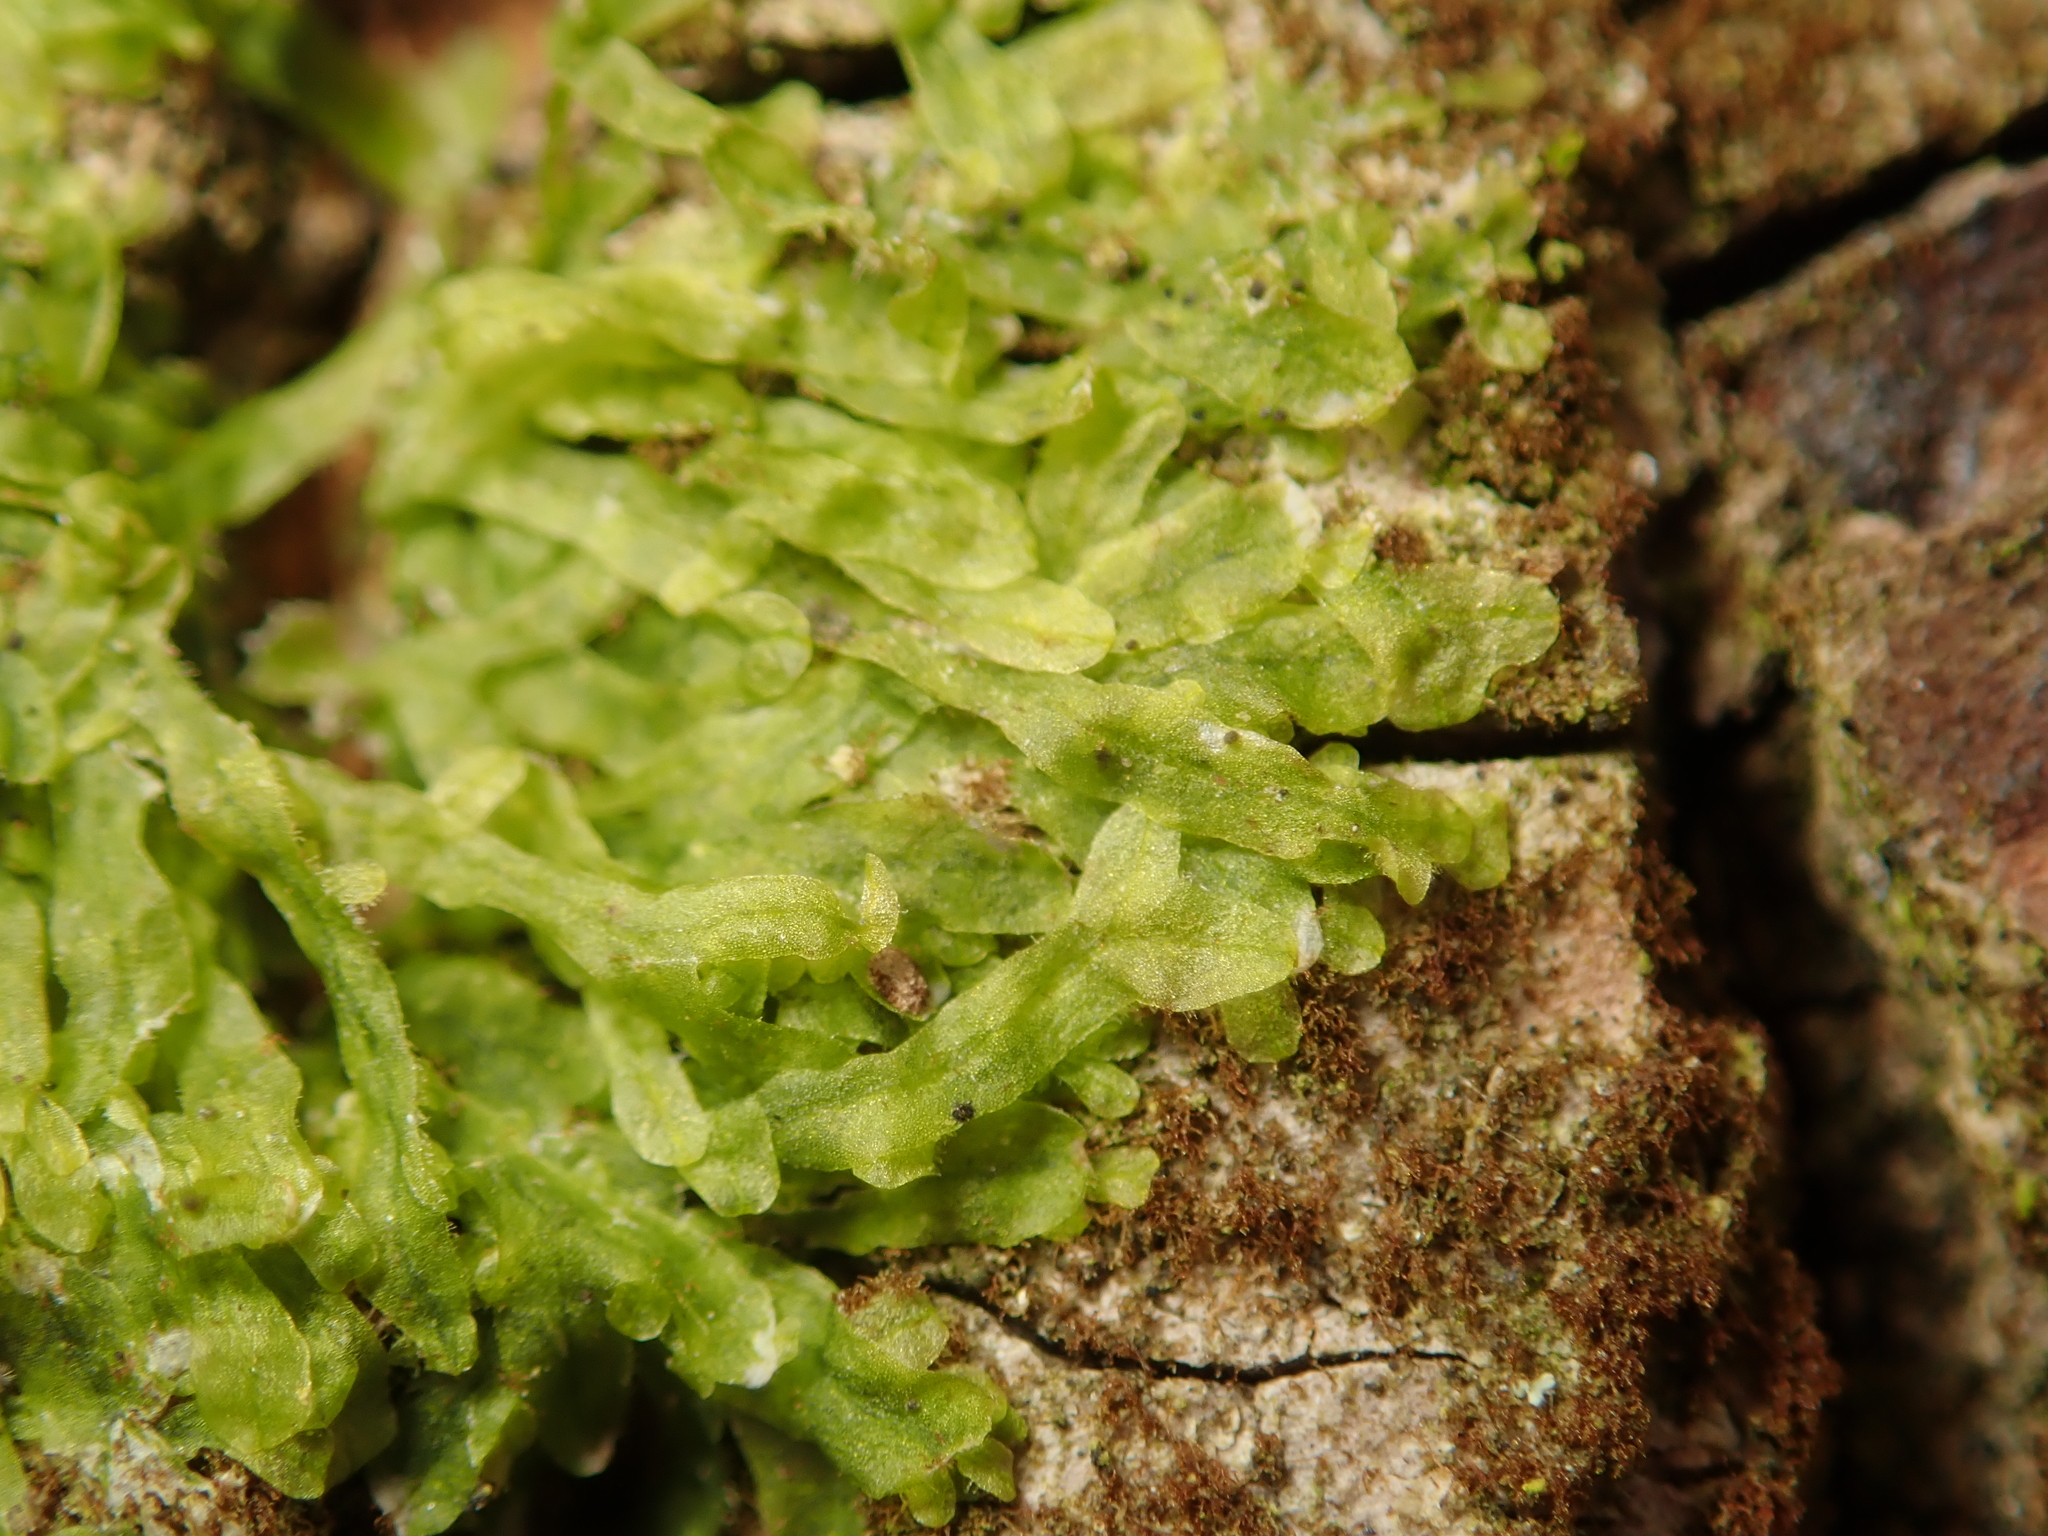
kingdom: Plantae
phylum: Marchantiophyta
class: Jungermanniopsida
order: Metzgeriales
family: Metzgeriaceae
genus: Metzgeria
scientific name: Metzgeria furcata
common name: Forked veilwort
